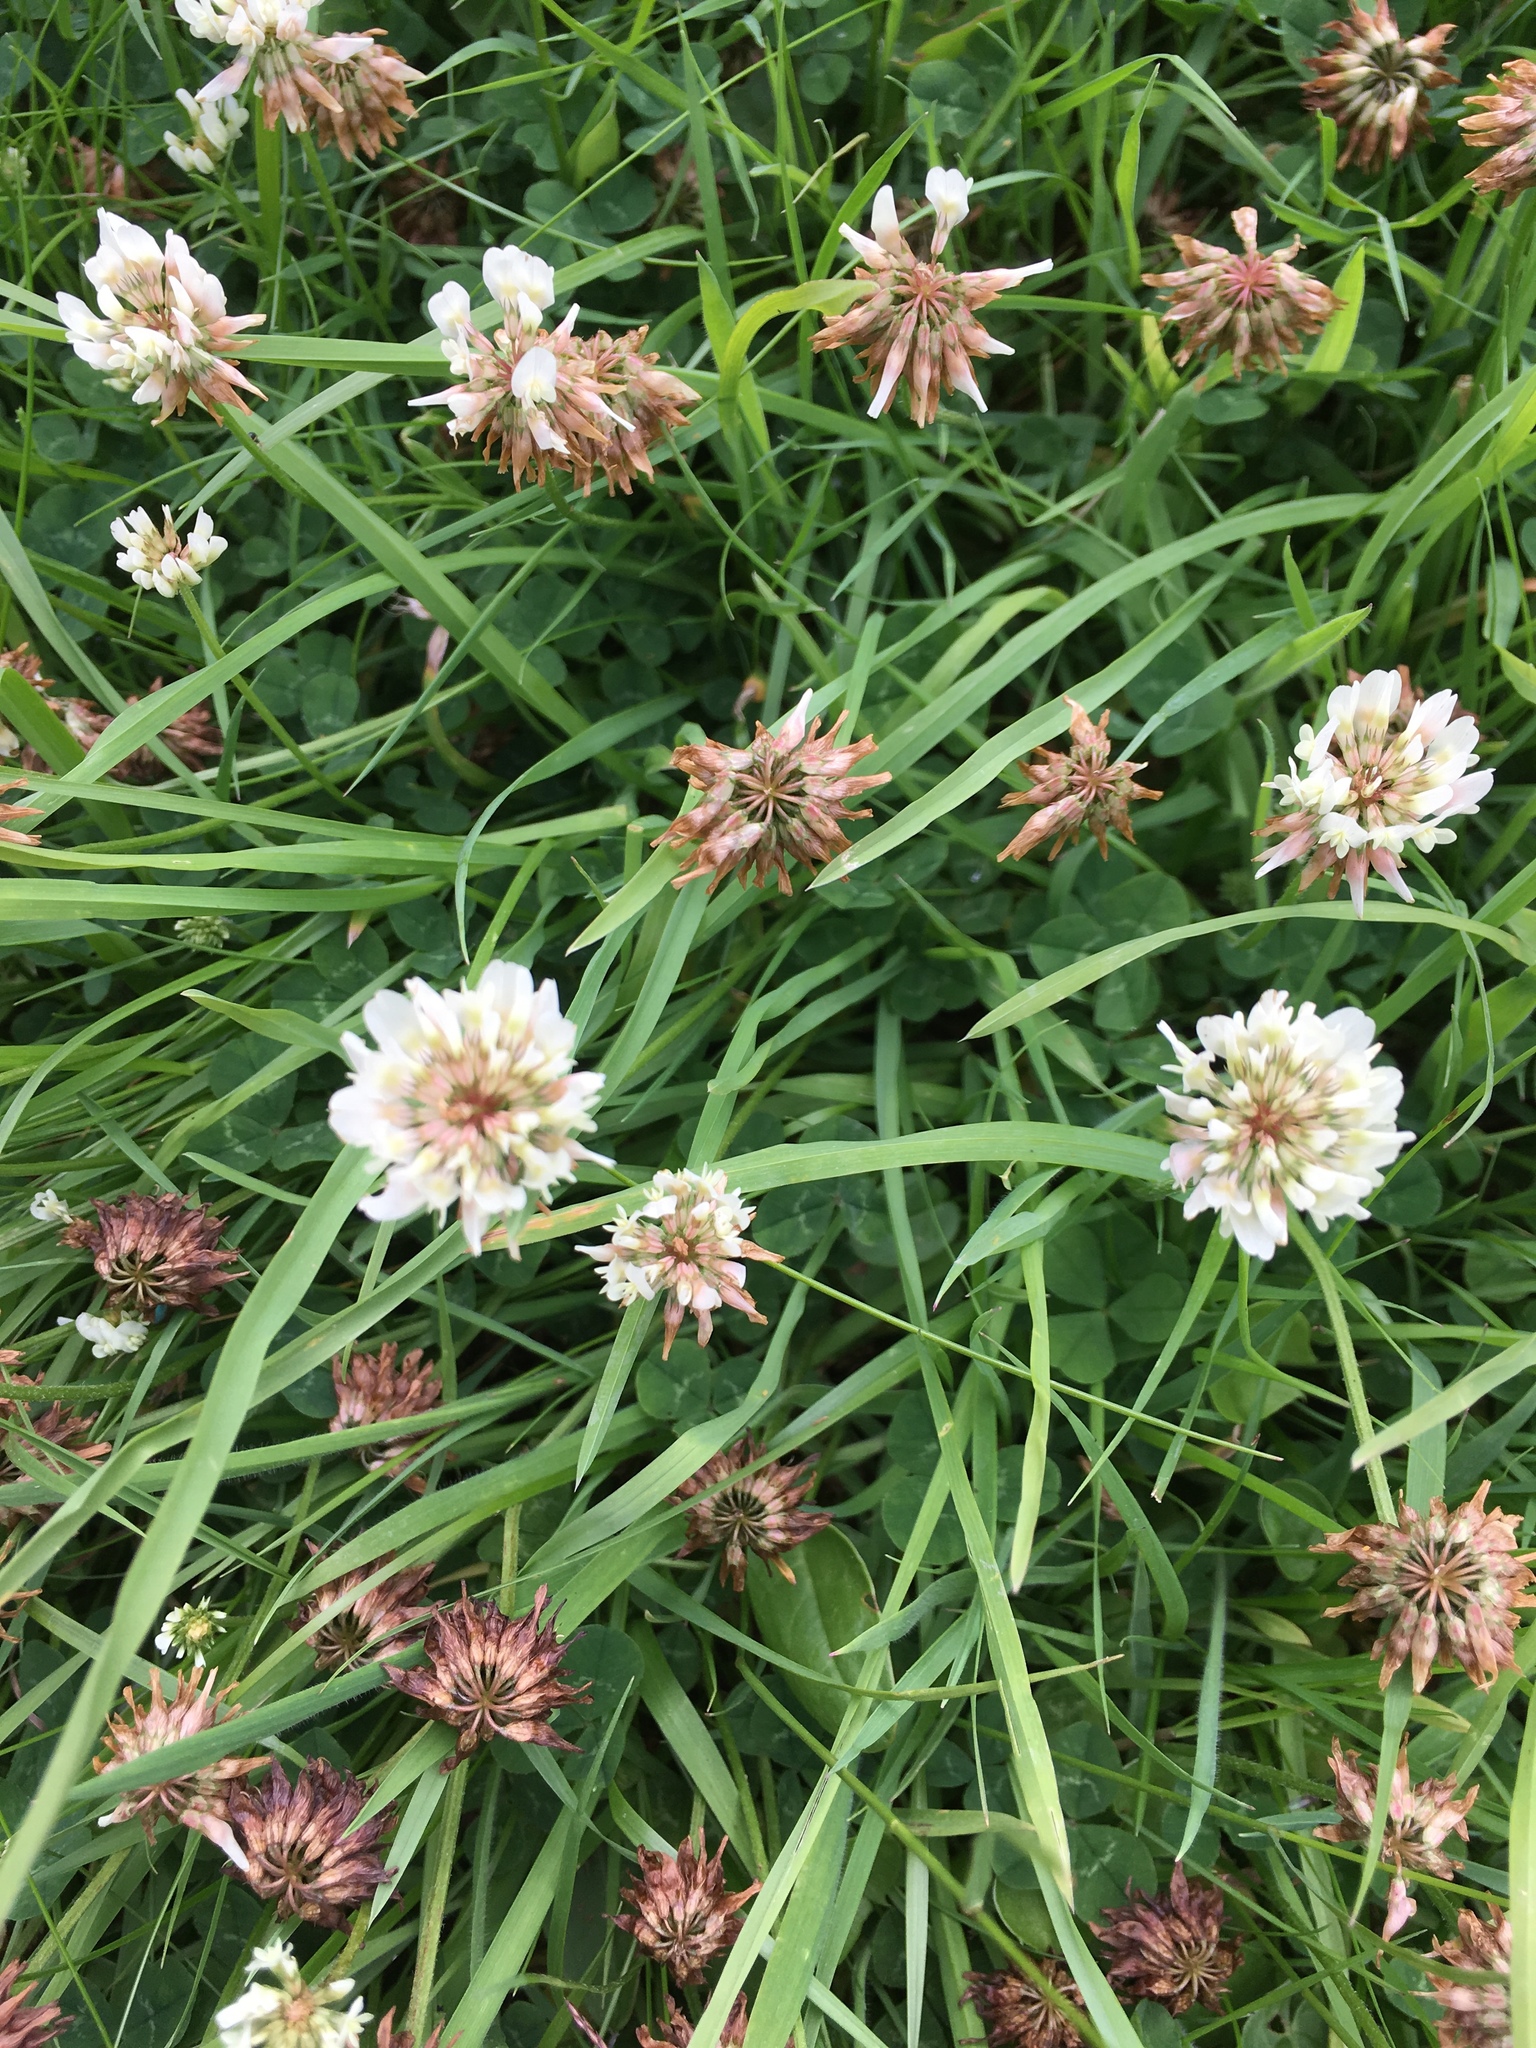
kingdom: Plantae
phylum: Tracheophyta
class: Magnoliopsida
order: Fabales
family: Fabaceae
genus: Trifolium
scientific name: Trifolium repens
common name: White clover
